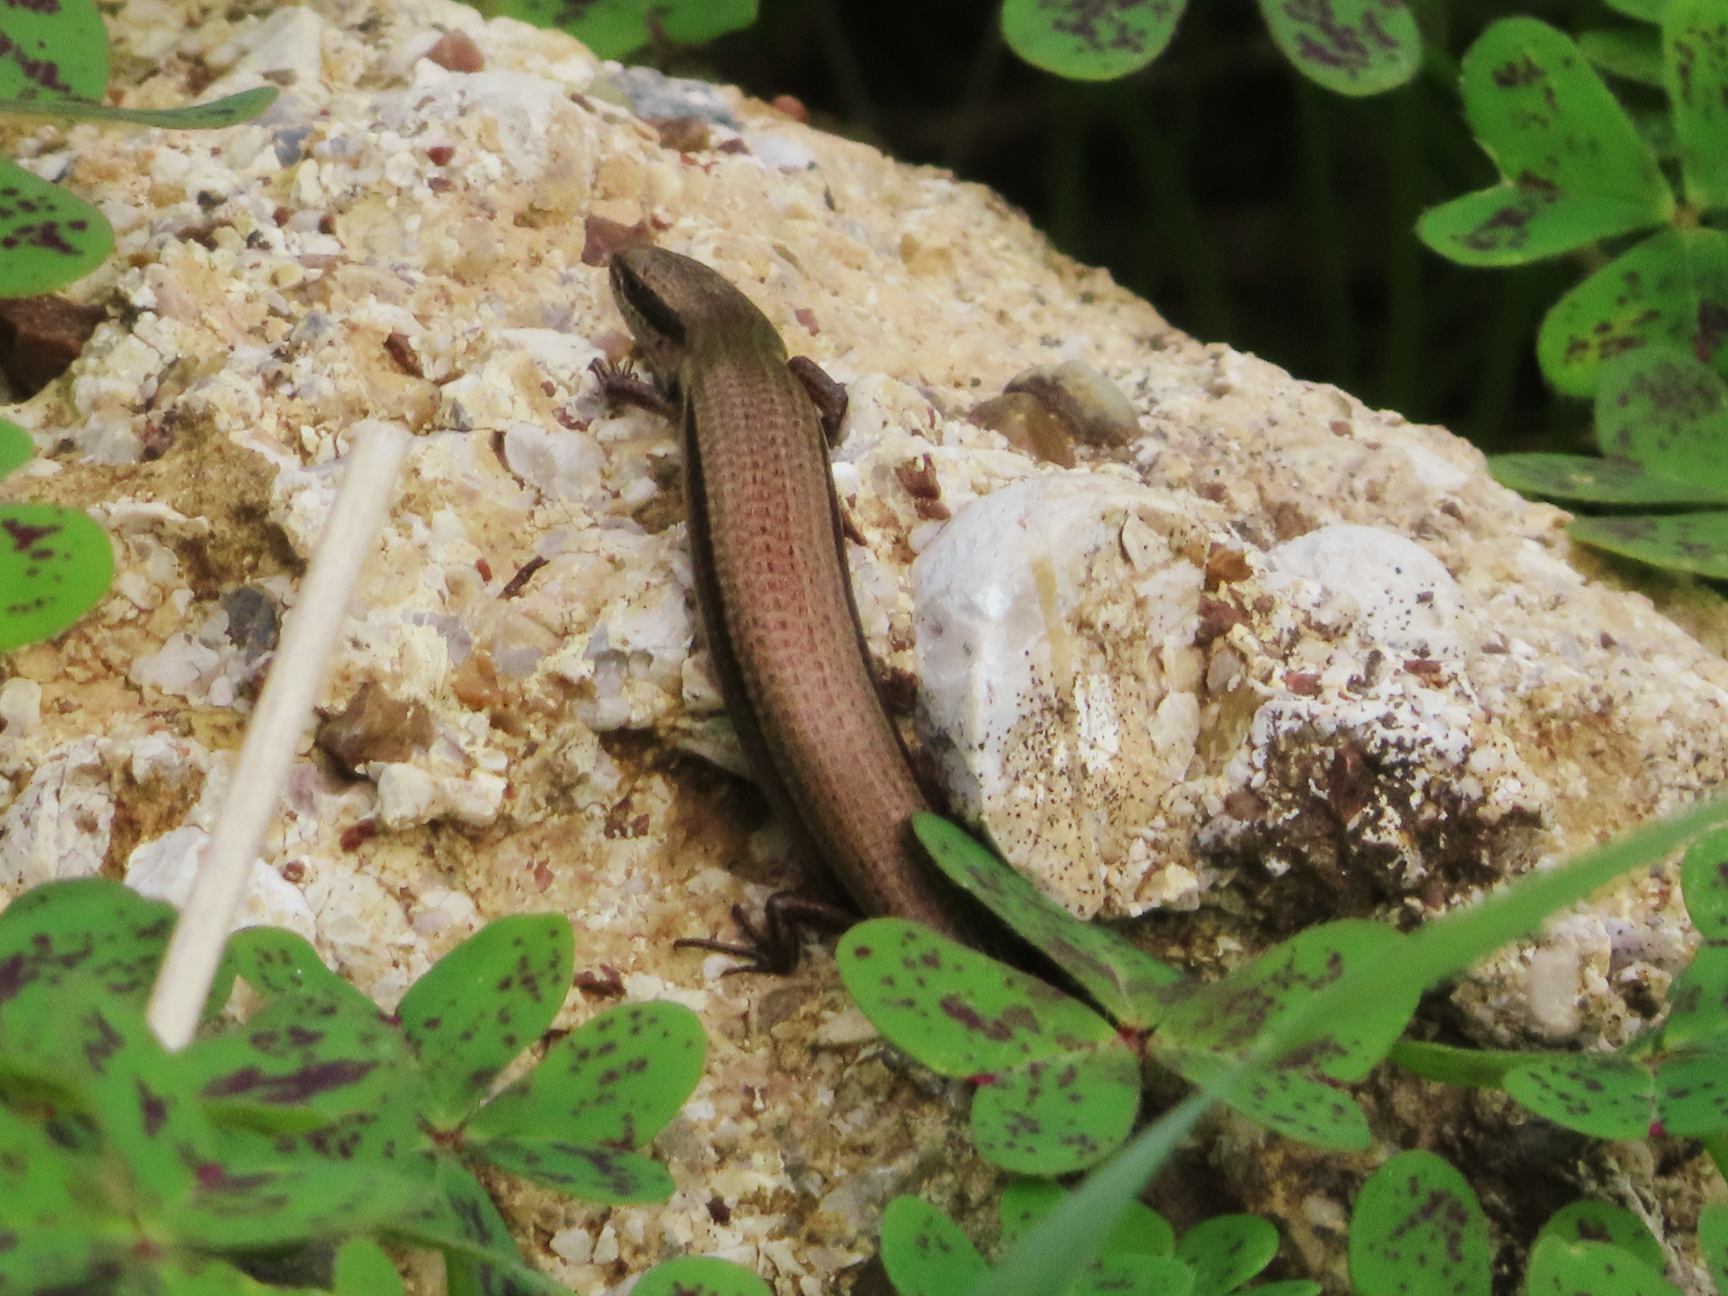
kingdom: Animalia
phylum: Chordata
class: Squamata
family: Scincidae
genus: Ablepharus
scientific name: Ablepharus kitaibelii
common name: Juniper skink
